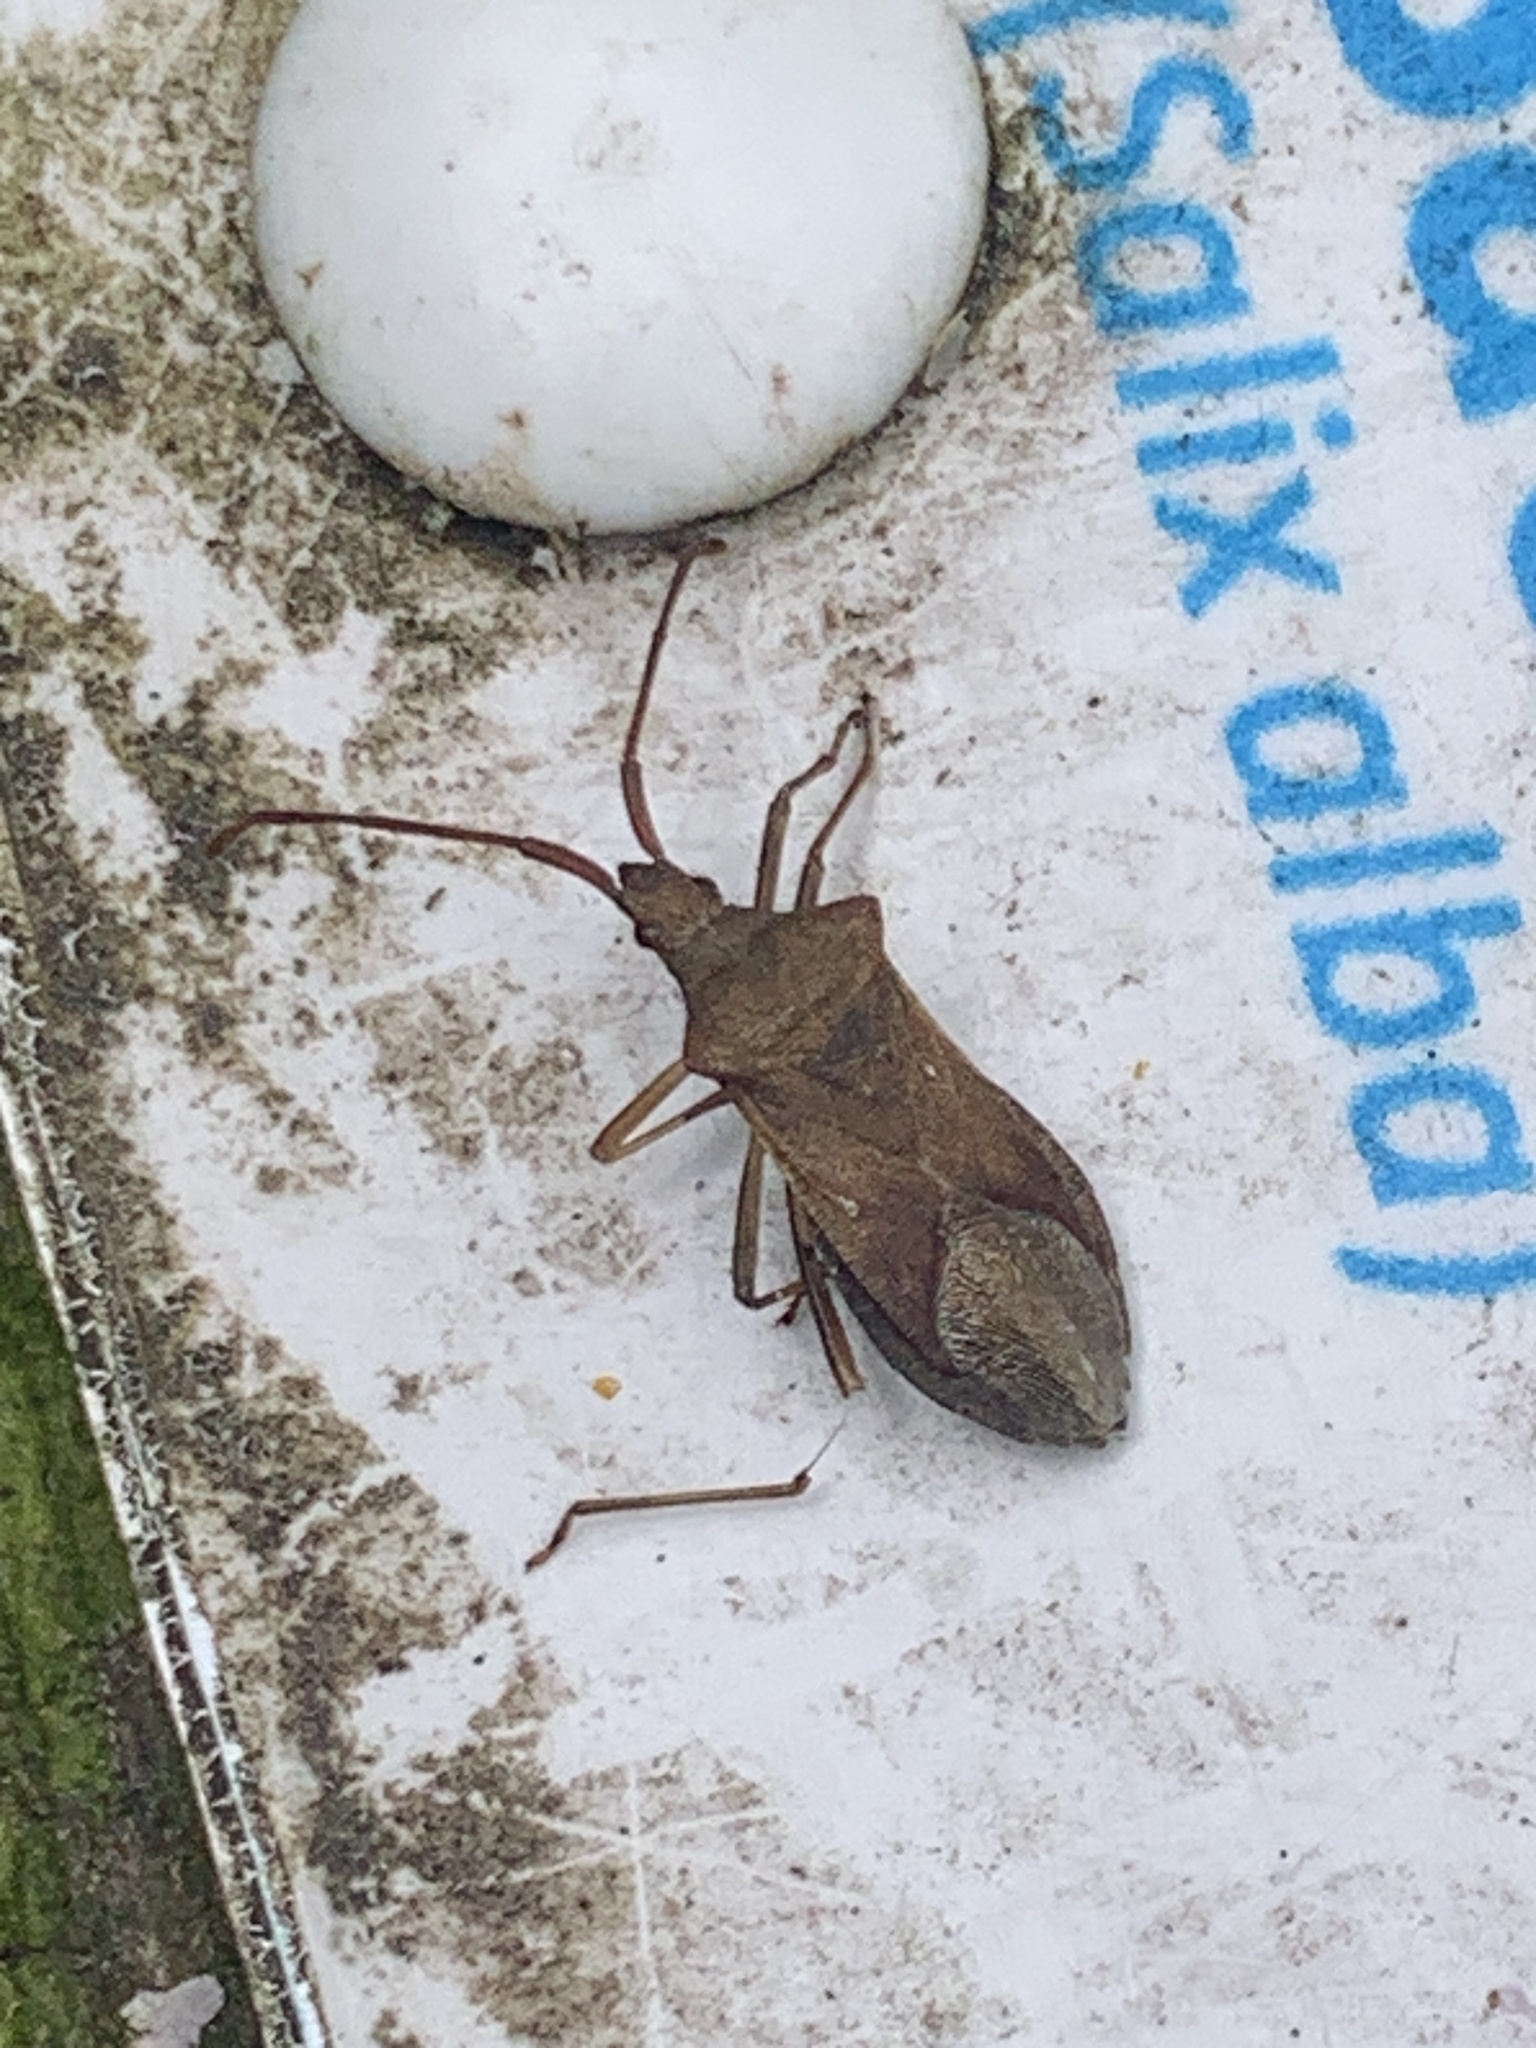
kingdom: Animalia
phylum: Arthropoda
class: Insecta
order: Hemiptera
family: Coreidae
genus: Gonocerus
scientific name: Gonocerus acuteangulatus
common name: Box bug
